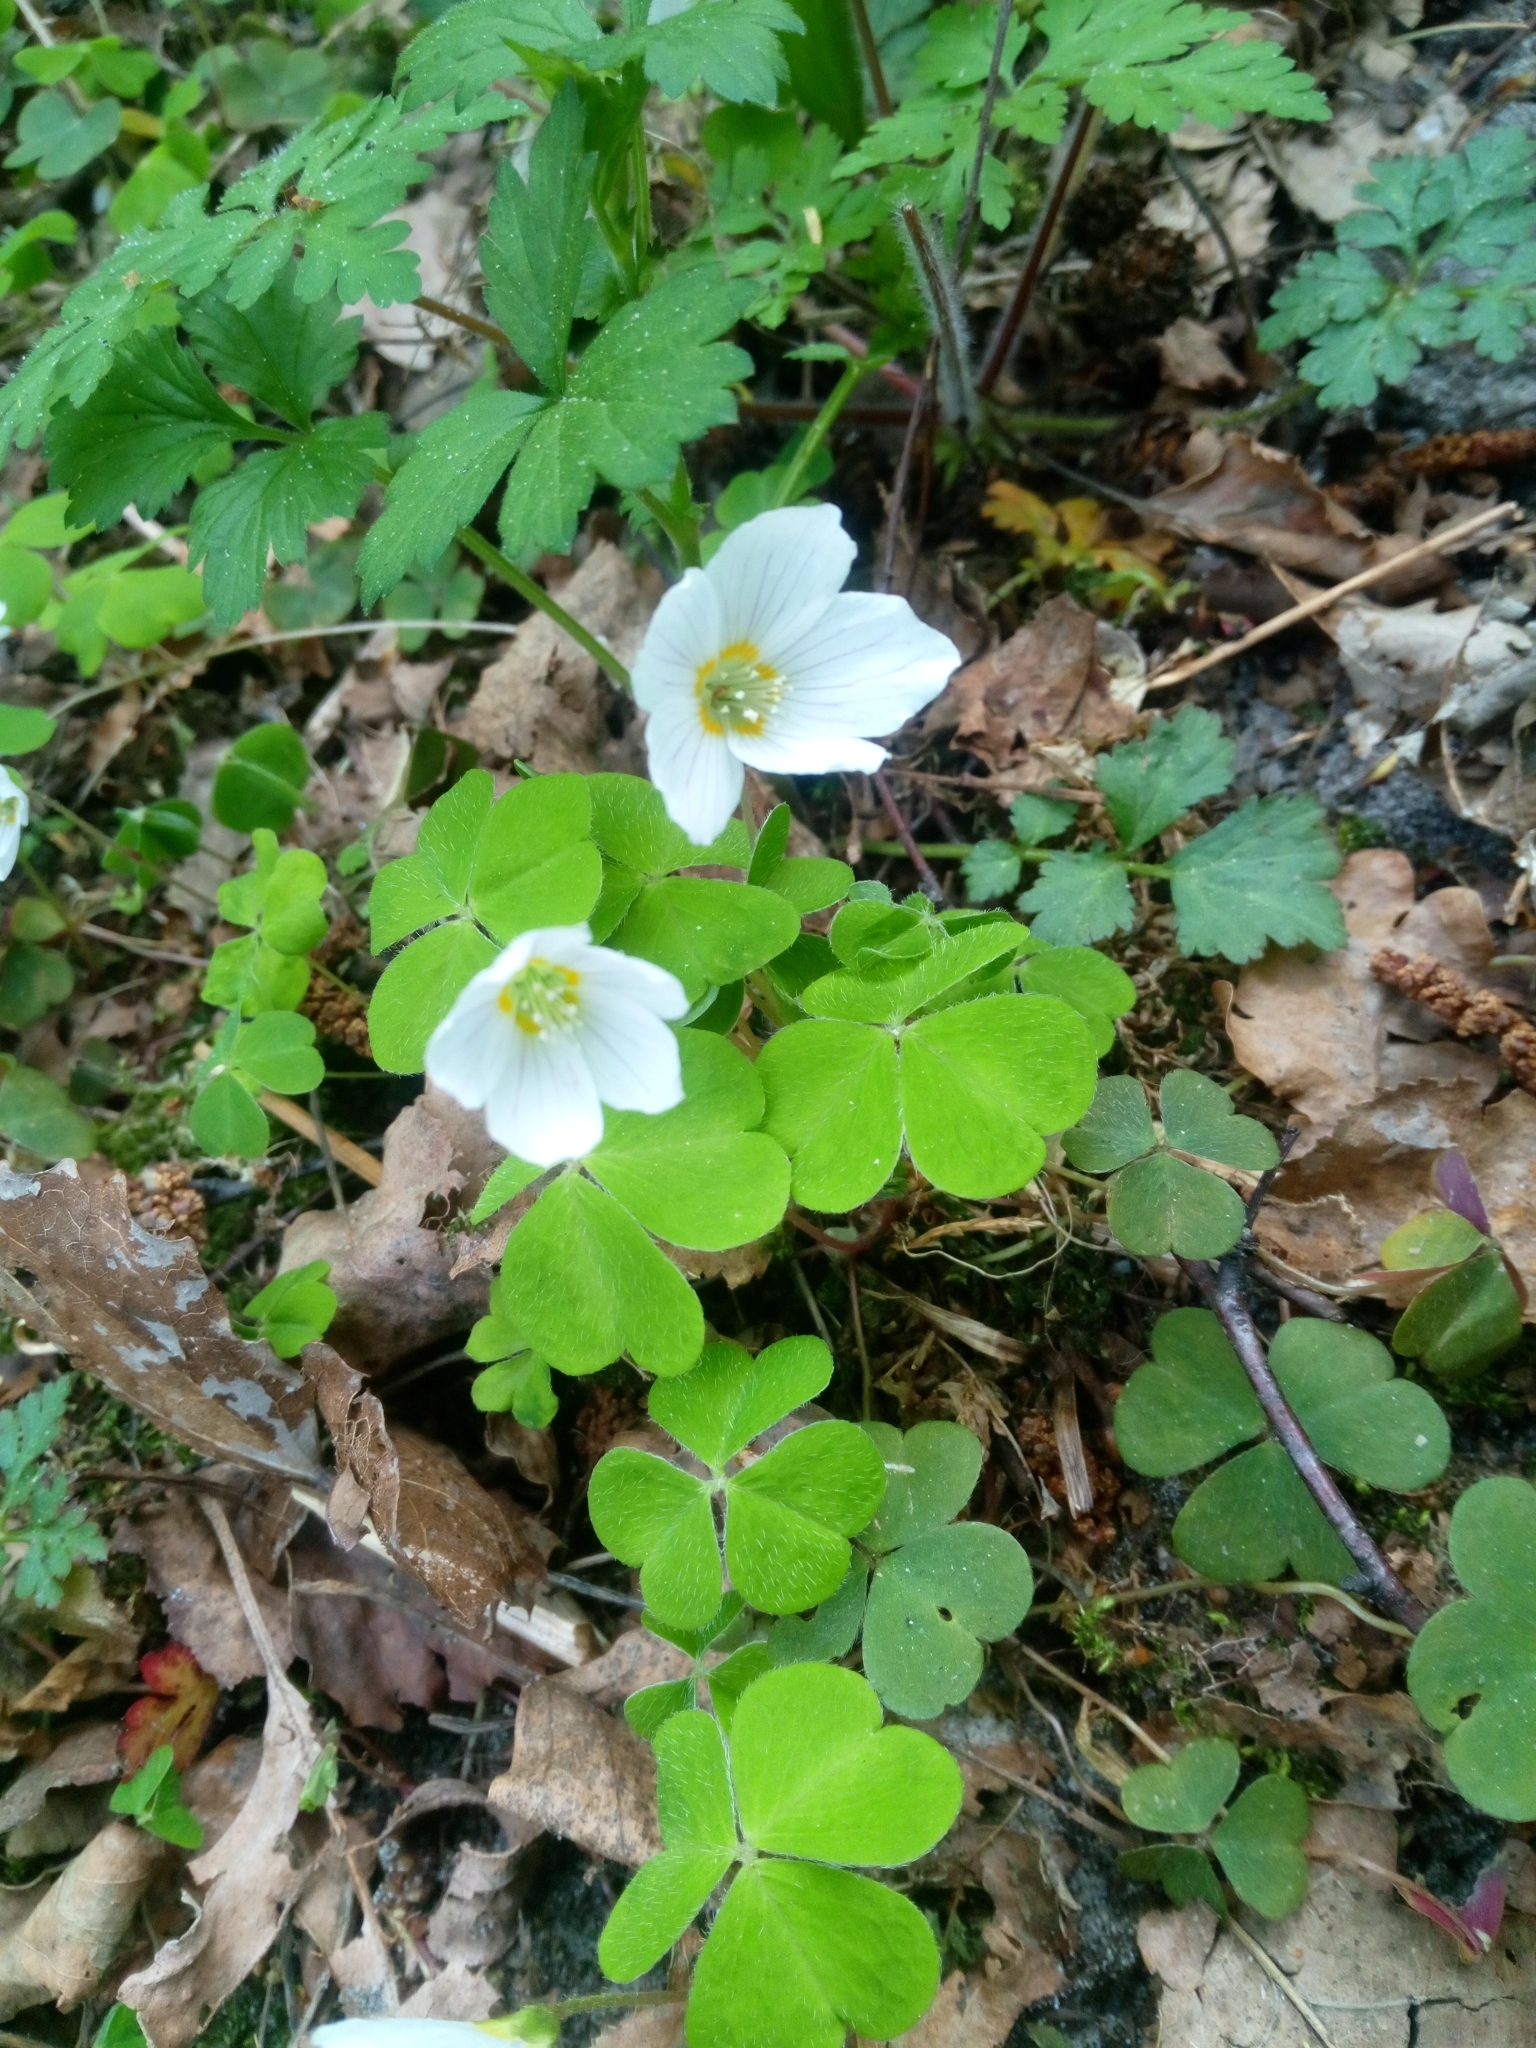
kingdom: Plantae
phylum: Tracheophyta
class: Magnoliopsida
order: Oxalidales
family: Oxalidaceae
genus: Oxalis
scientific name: Oxalis acetosella
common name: Wood-sorrel
